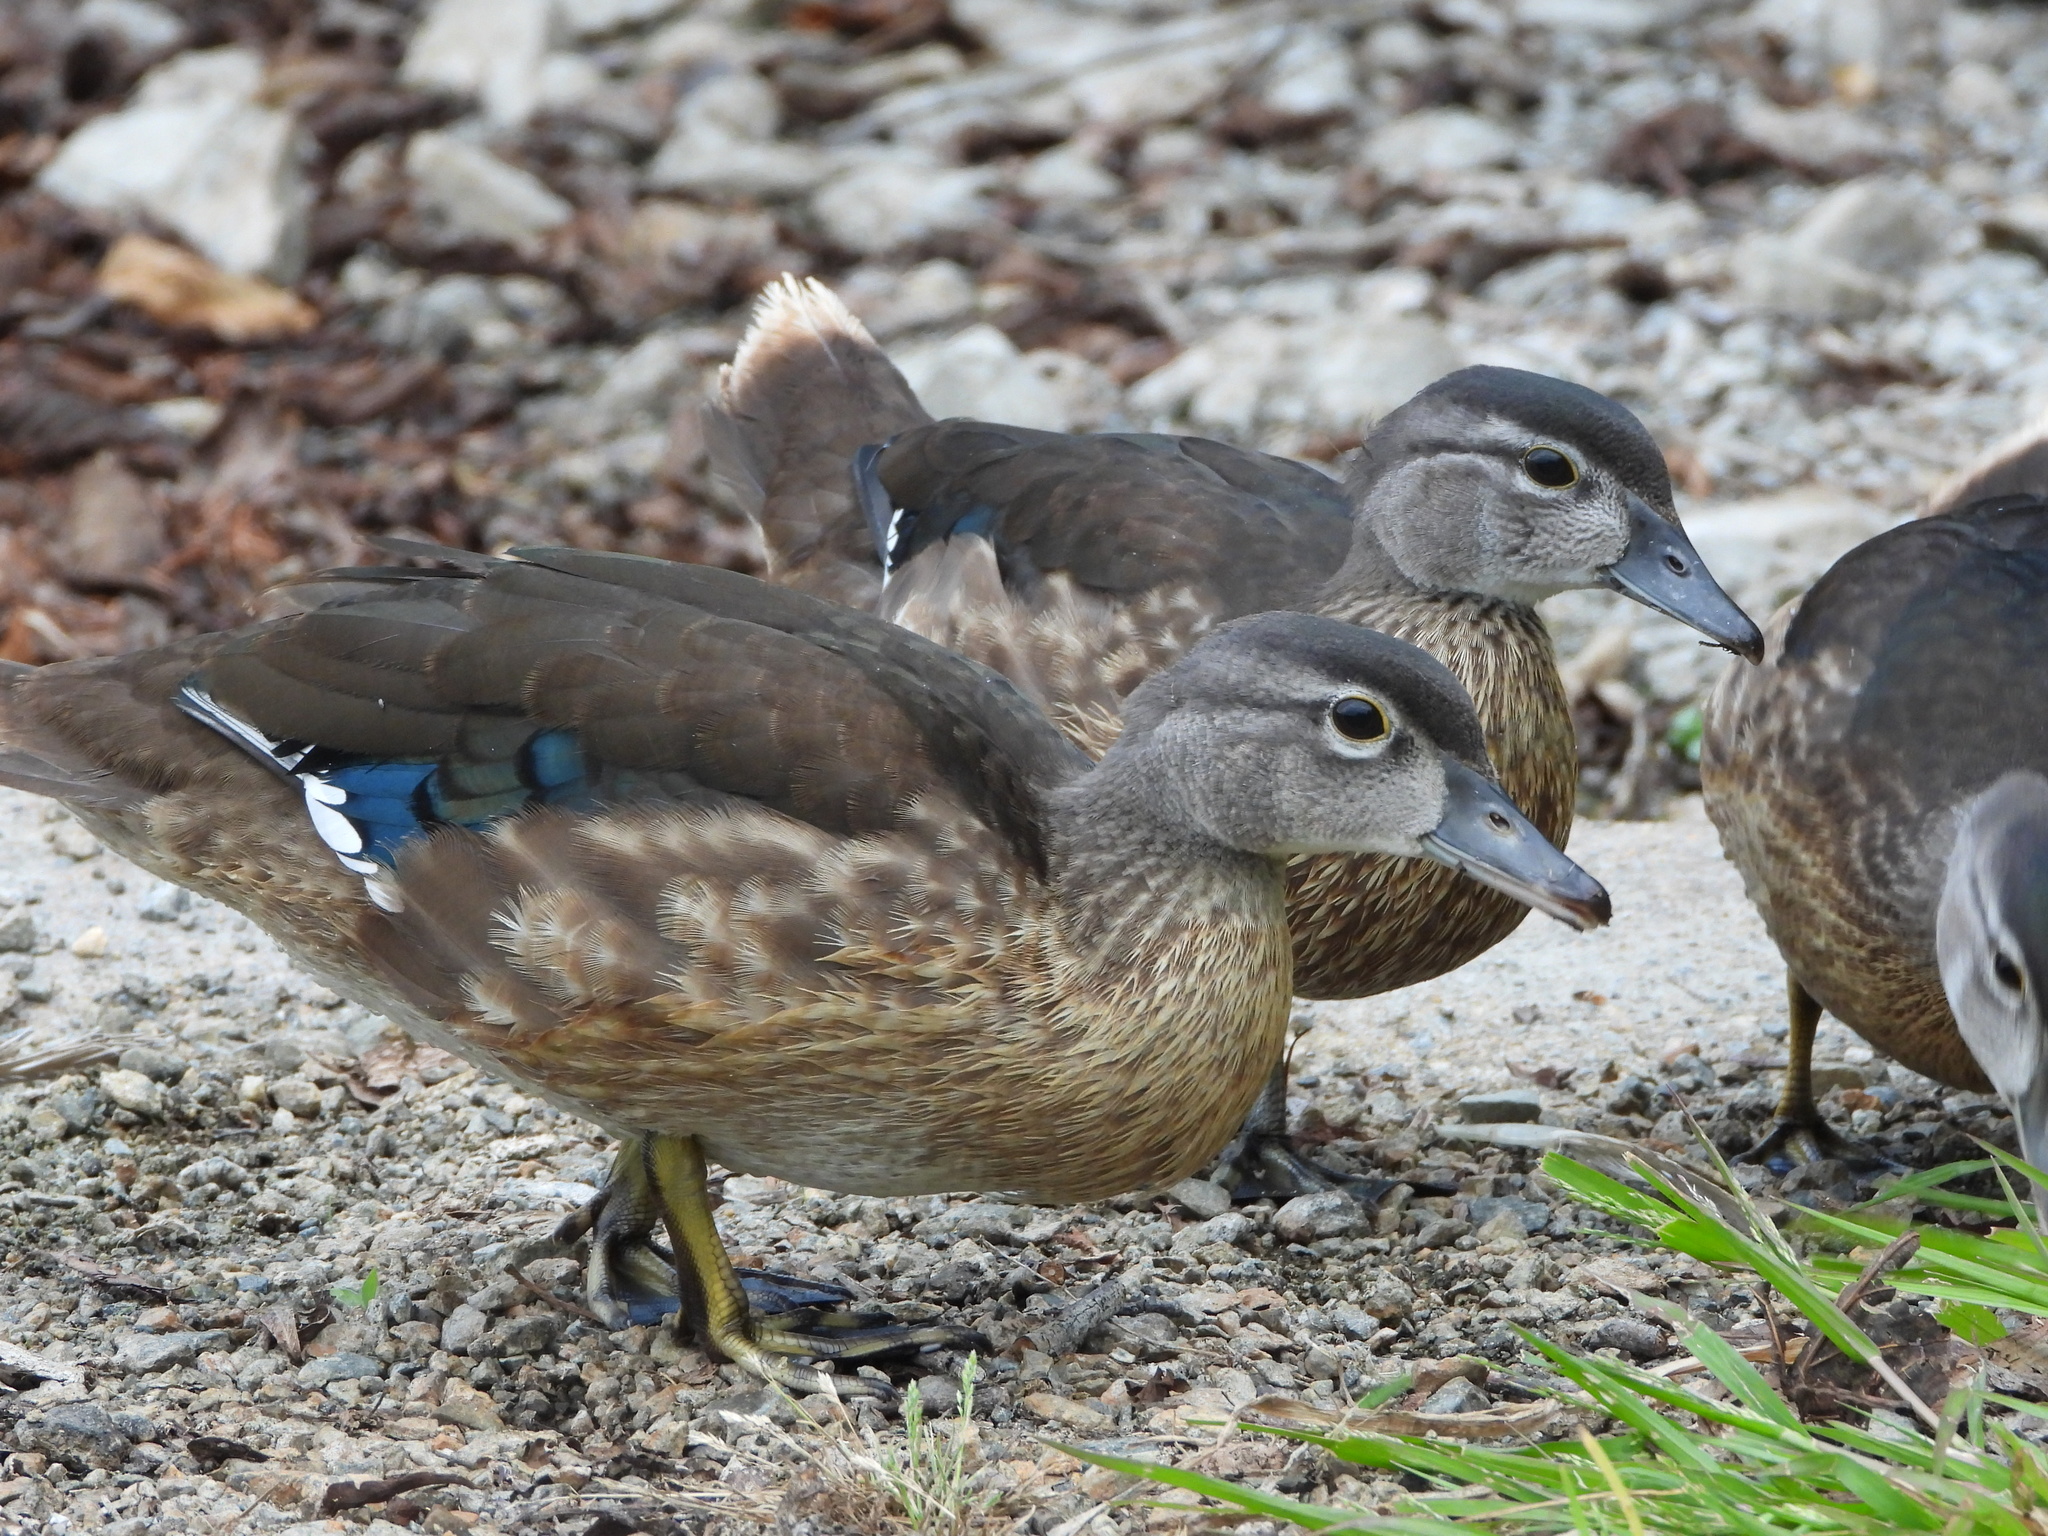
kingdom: Animalia
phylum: Chordata
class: Aves
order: Anseriformes
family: Anatidae
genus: Aix
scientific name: Aix sponsa
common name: Wood duck
